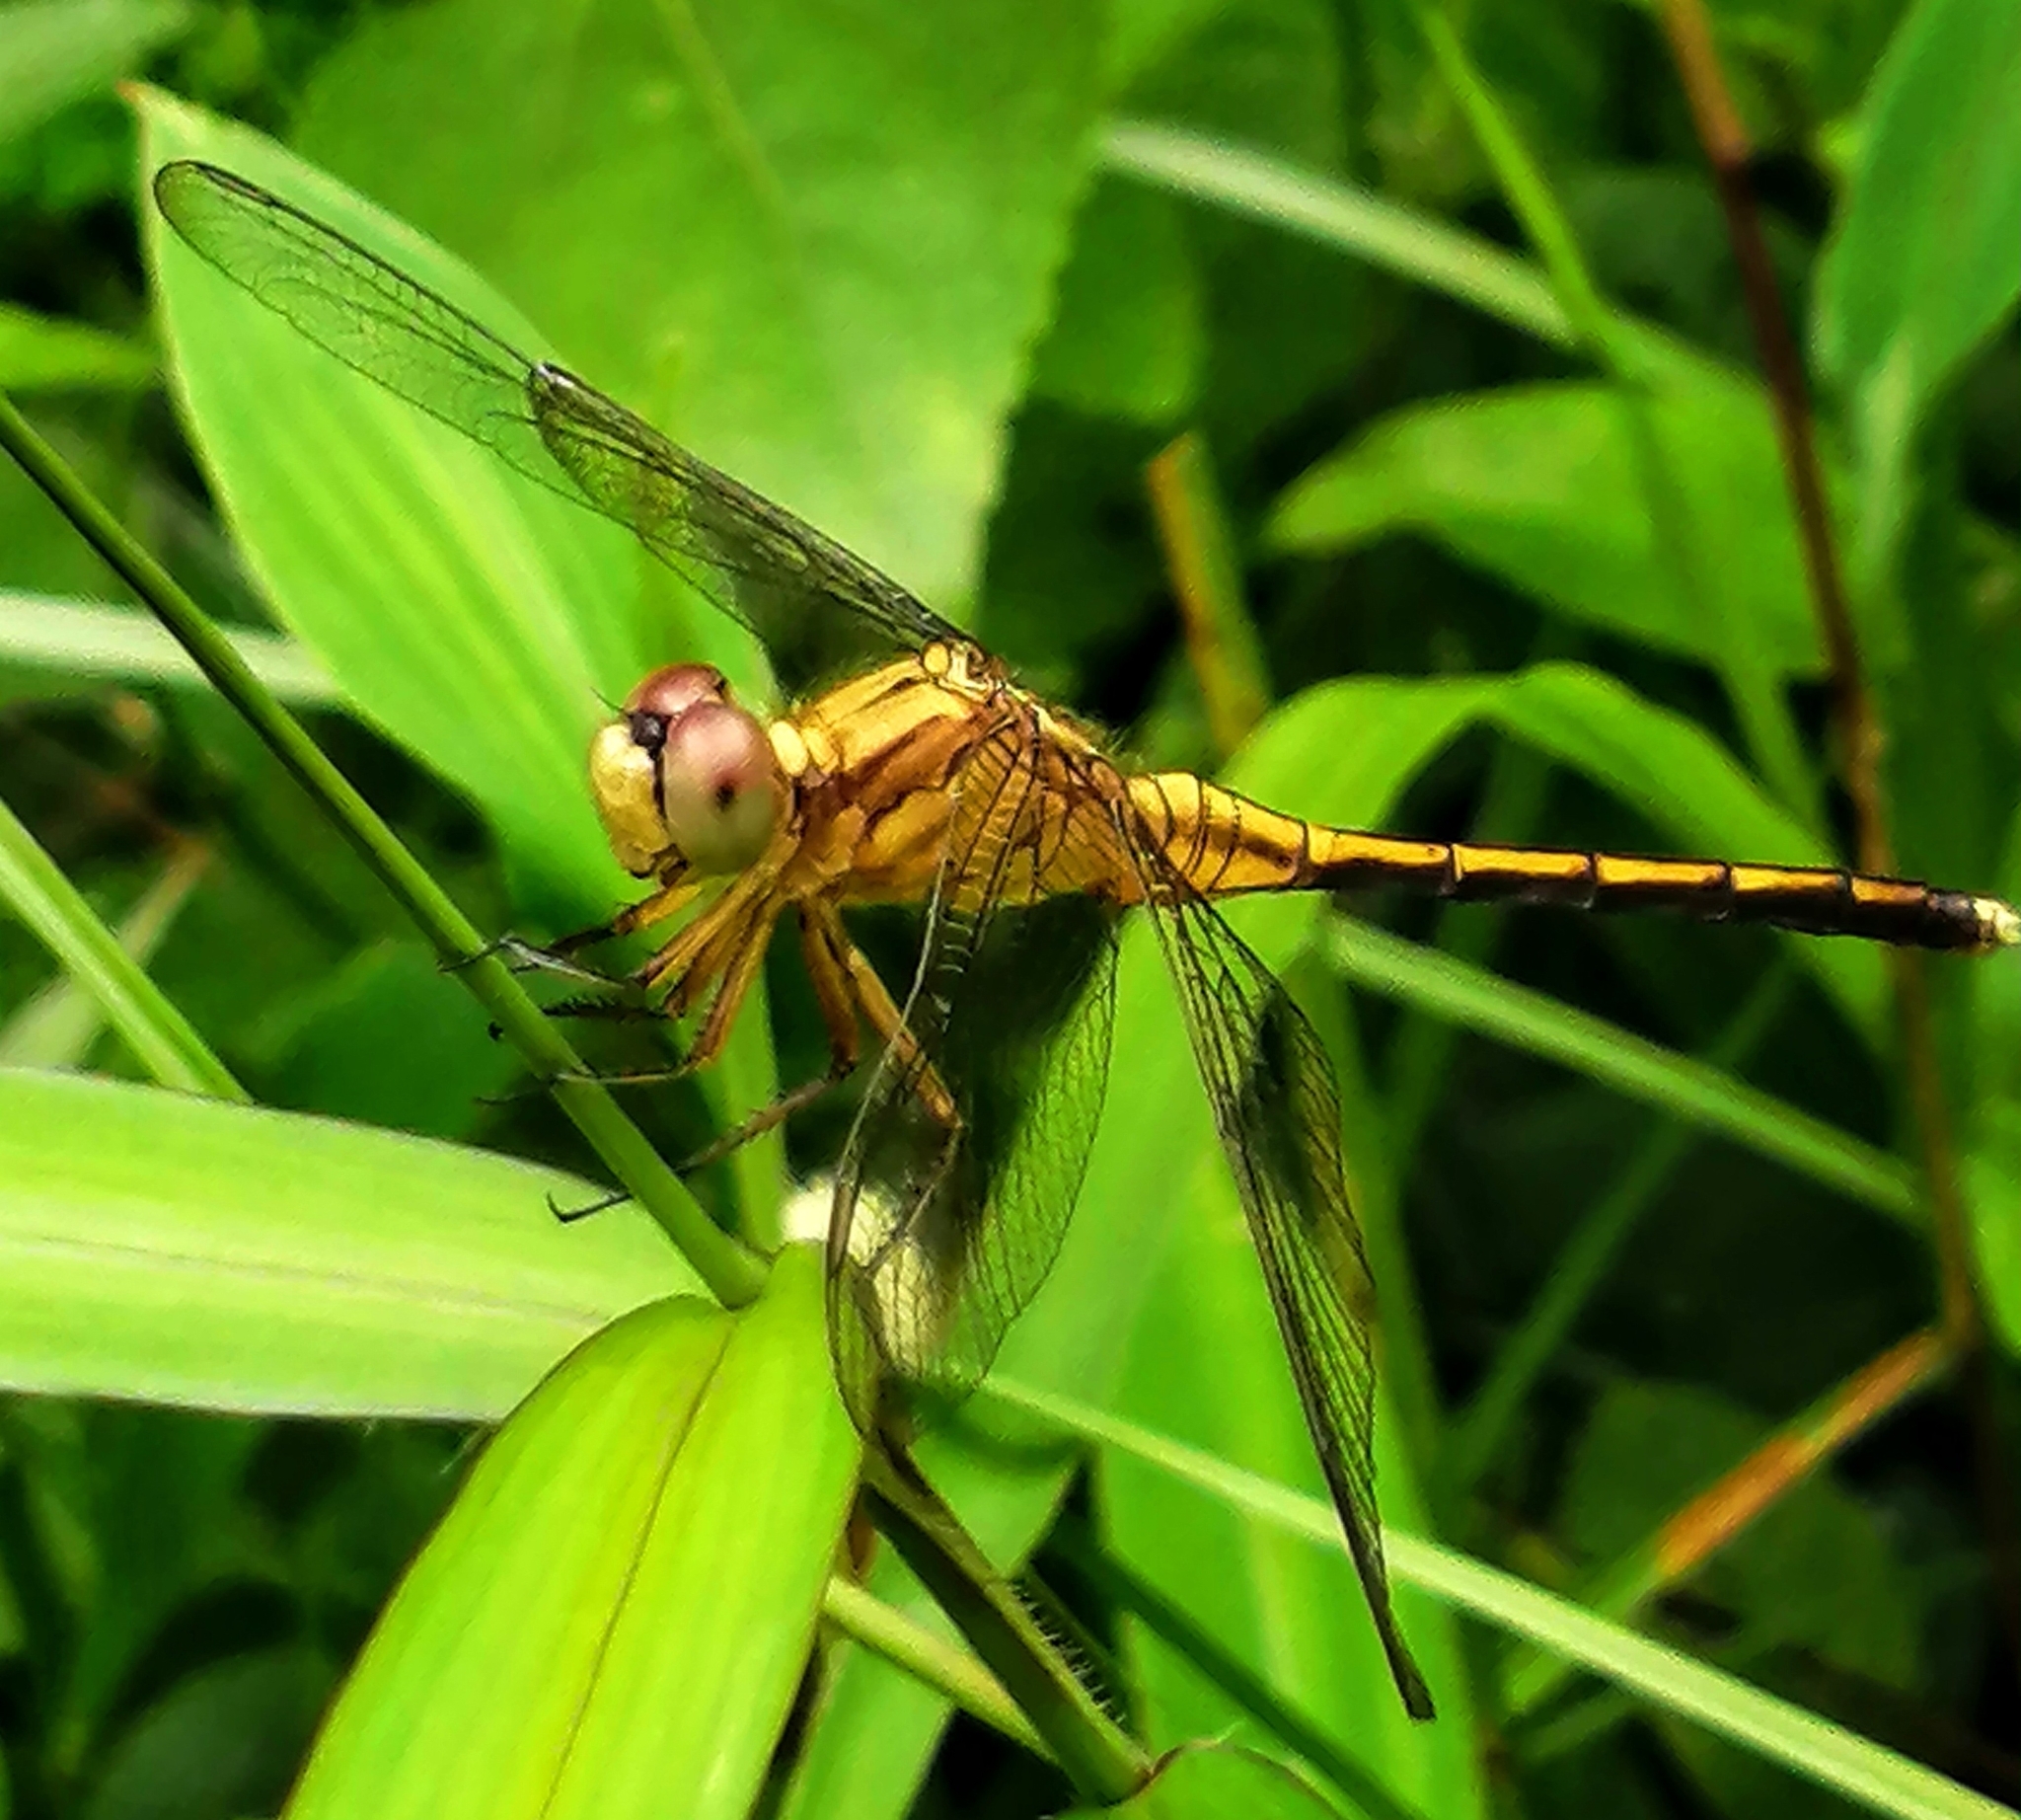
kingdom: Animalia
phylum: Arthropoda
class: Insecta
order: Odonata
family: Libellulidae
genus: Orthetrum
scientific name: Orthetrum luzonicum
